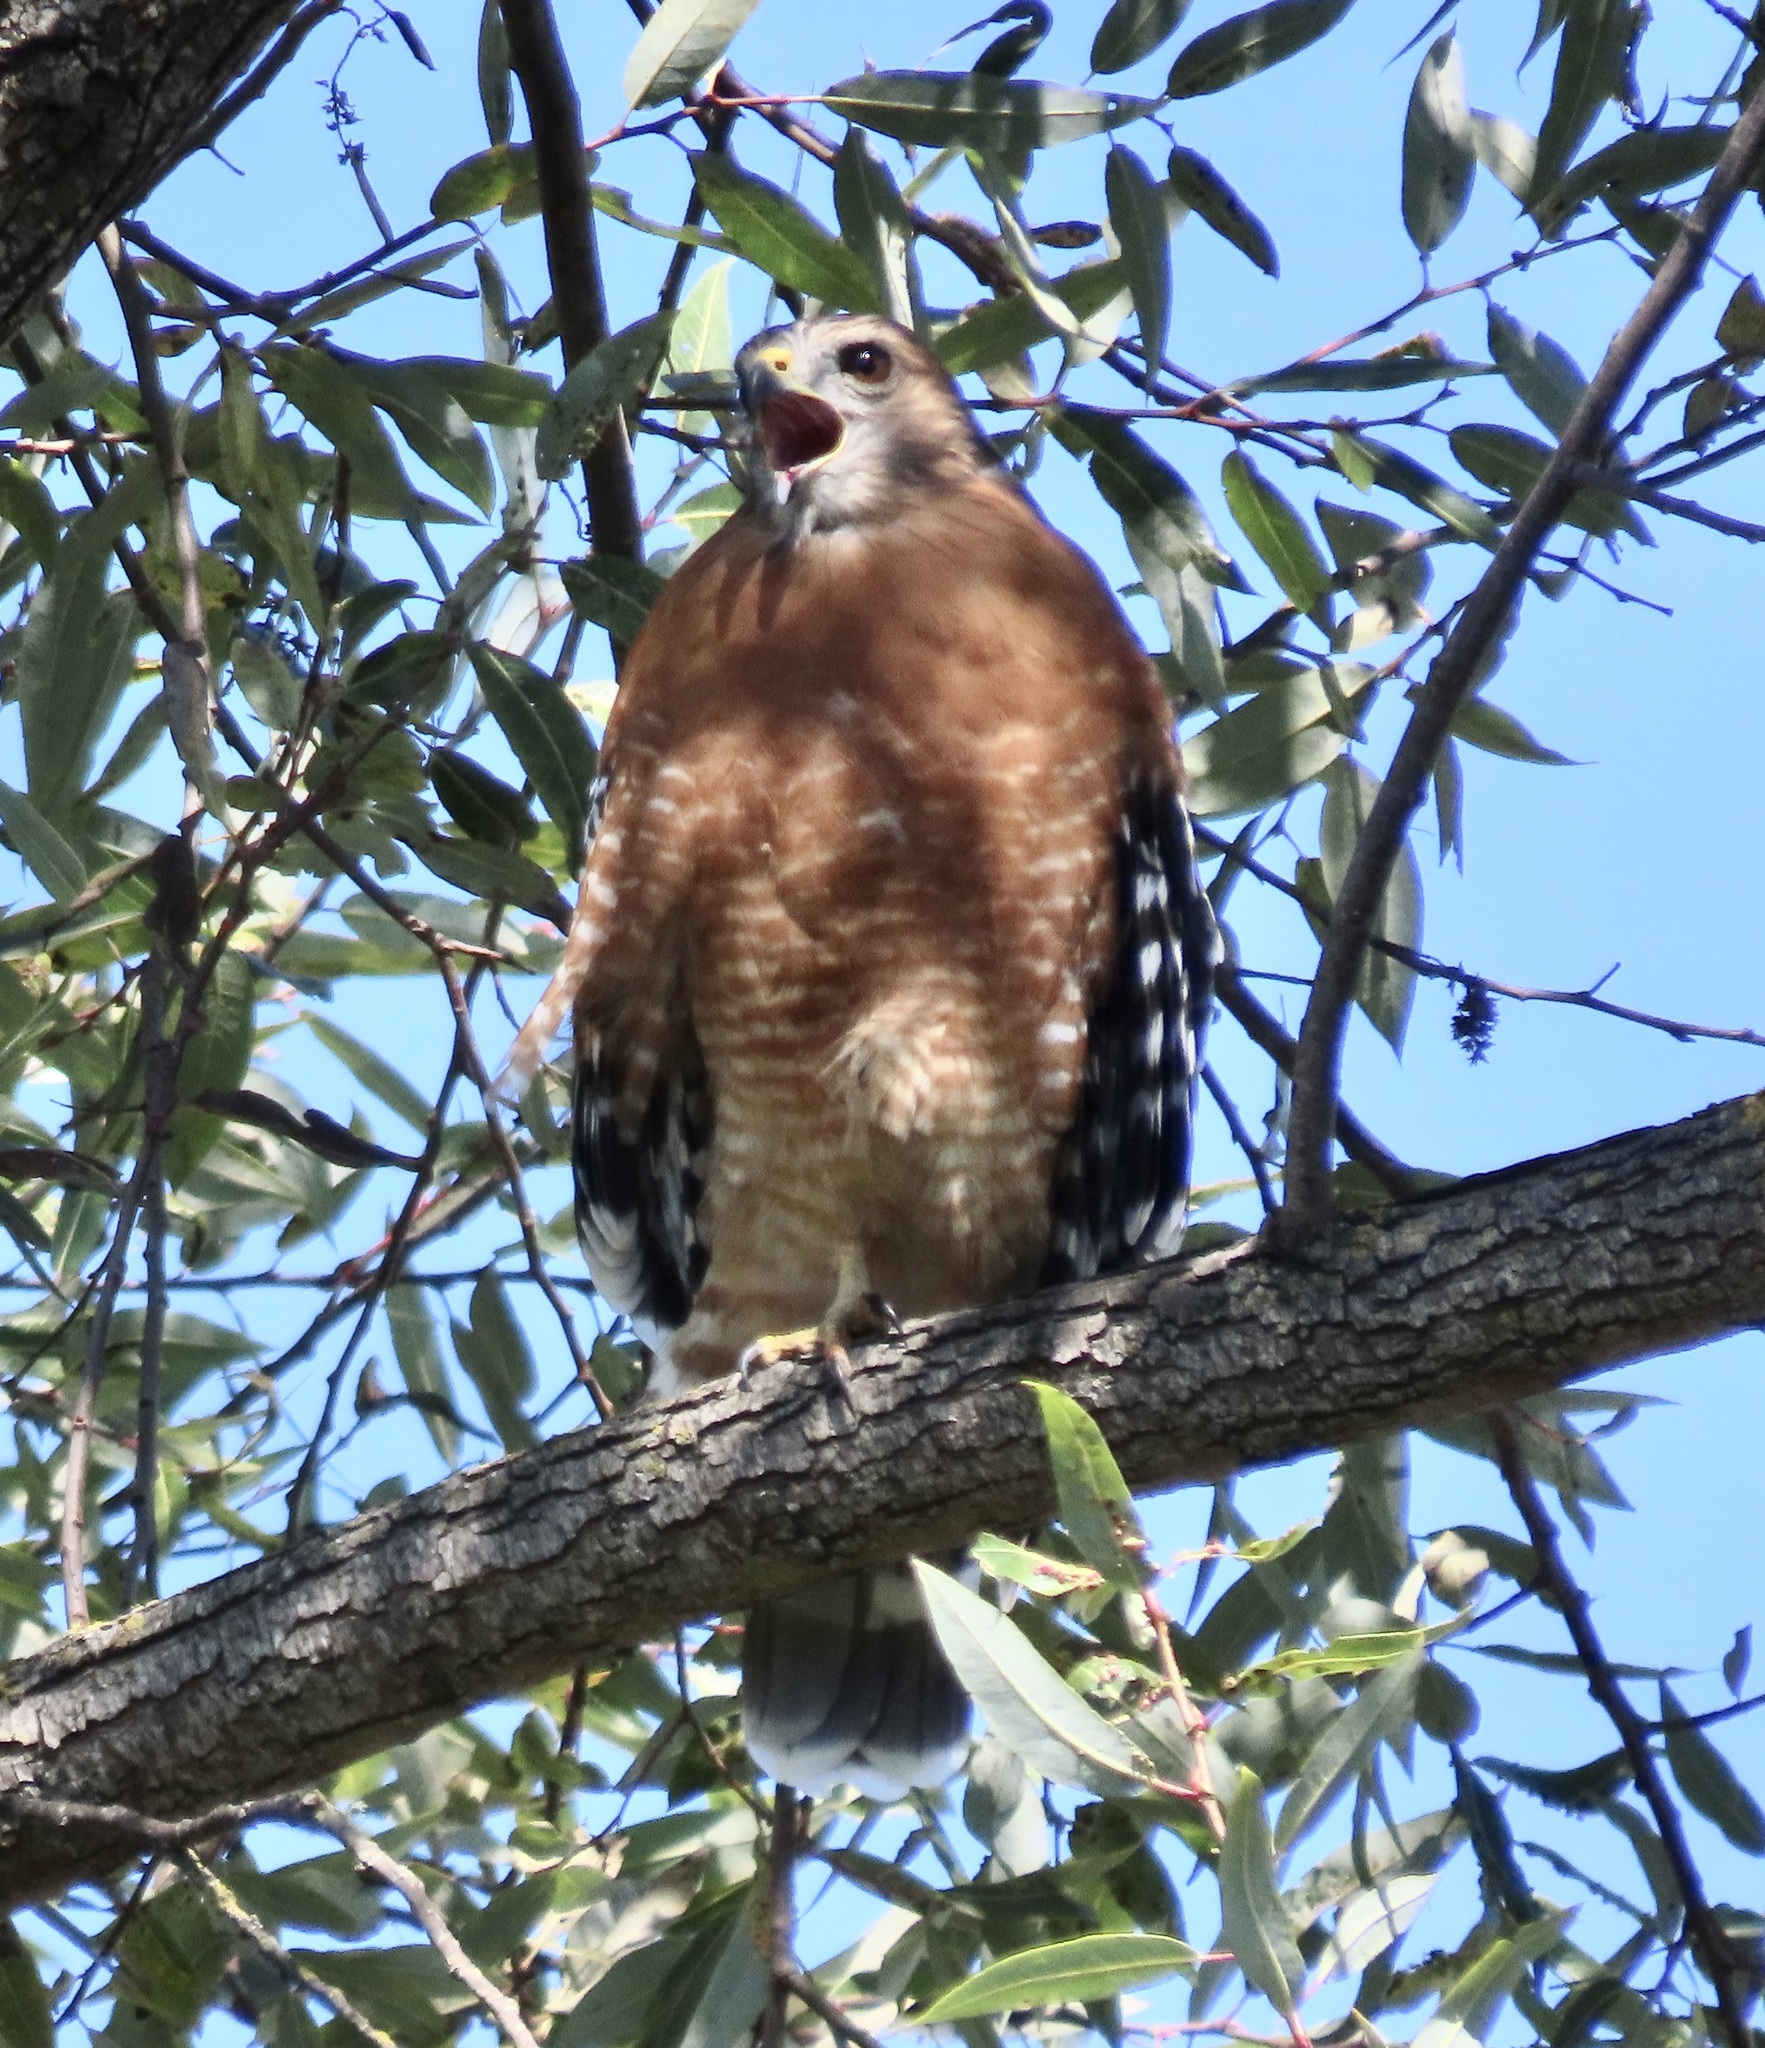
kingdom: Animalia
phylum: Chordata
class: Aves
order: Accipitriformes
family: Accipitridae
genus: Buteo
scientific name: Buteo lineatus
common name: Red-shouldered hawk
